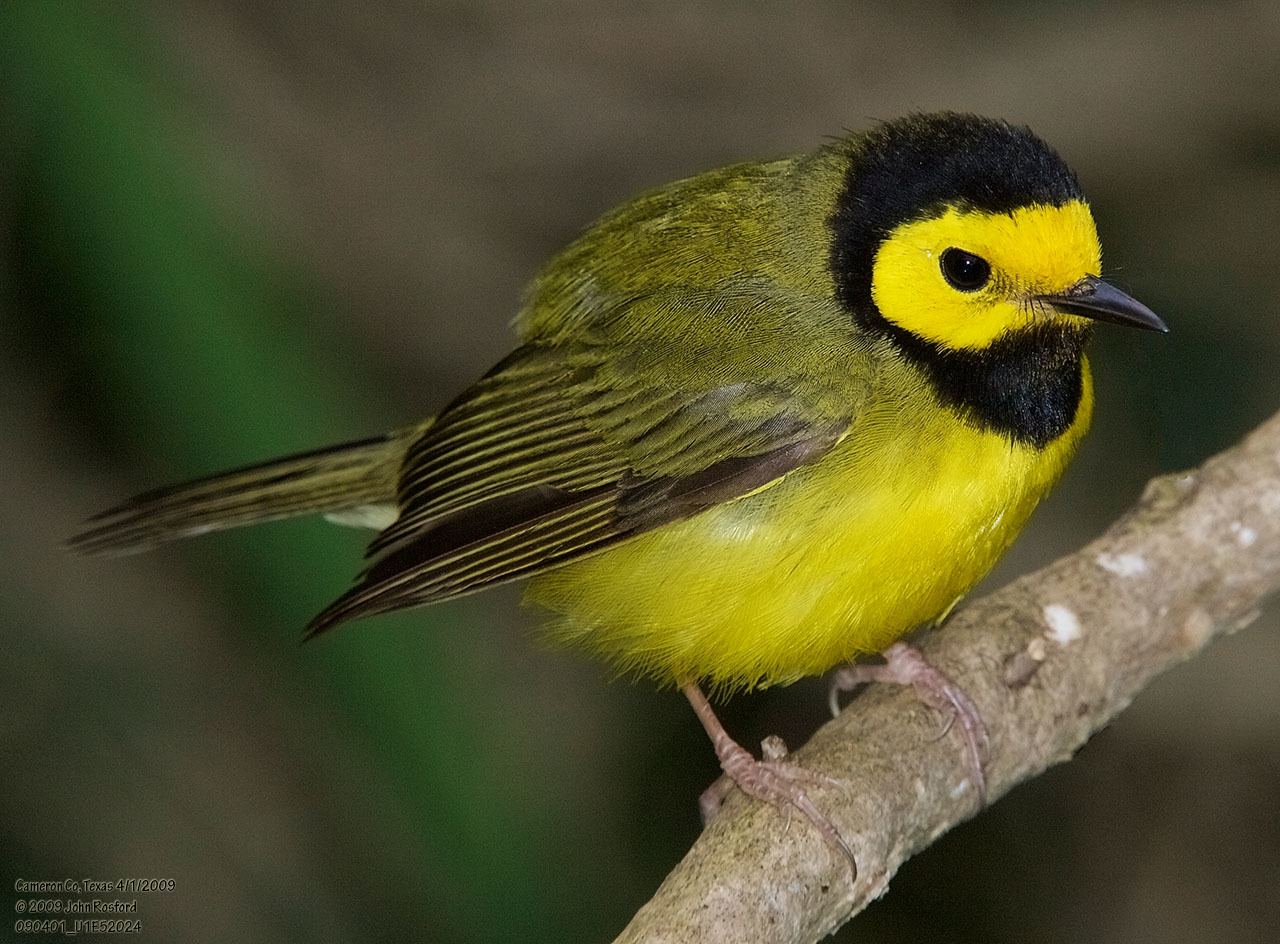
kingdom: Animalia
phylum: Chordata
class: Aves
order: Passeriformes
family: Parulidae
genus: Setophaga
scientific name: Setophaga citrina
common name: Hooded warbler
